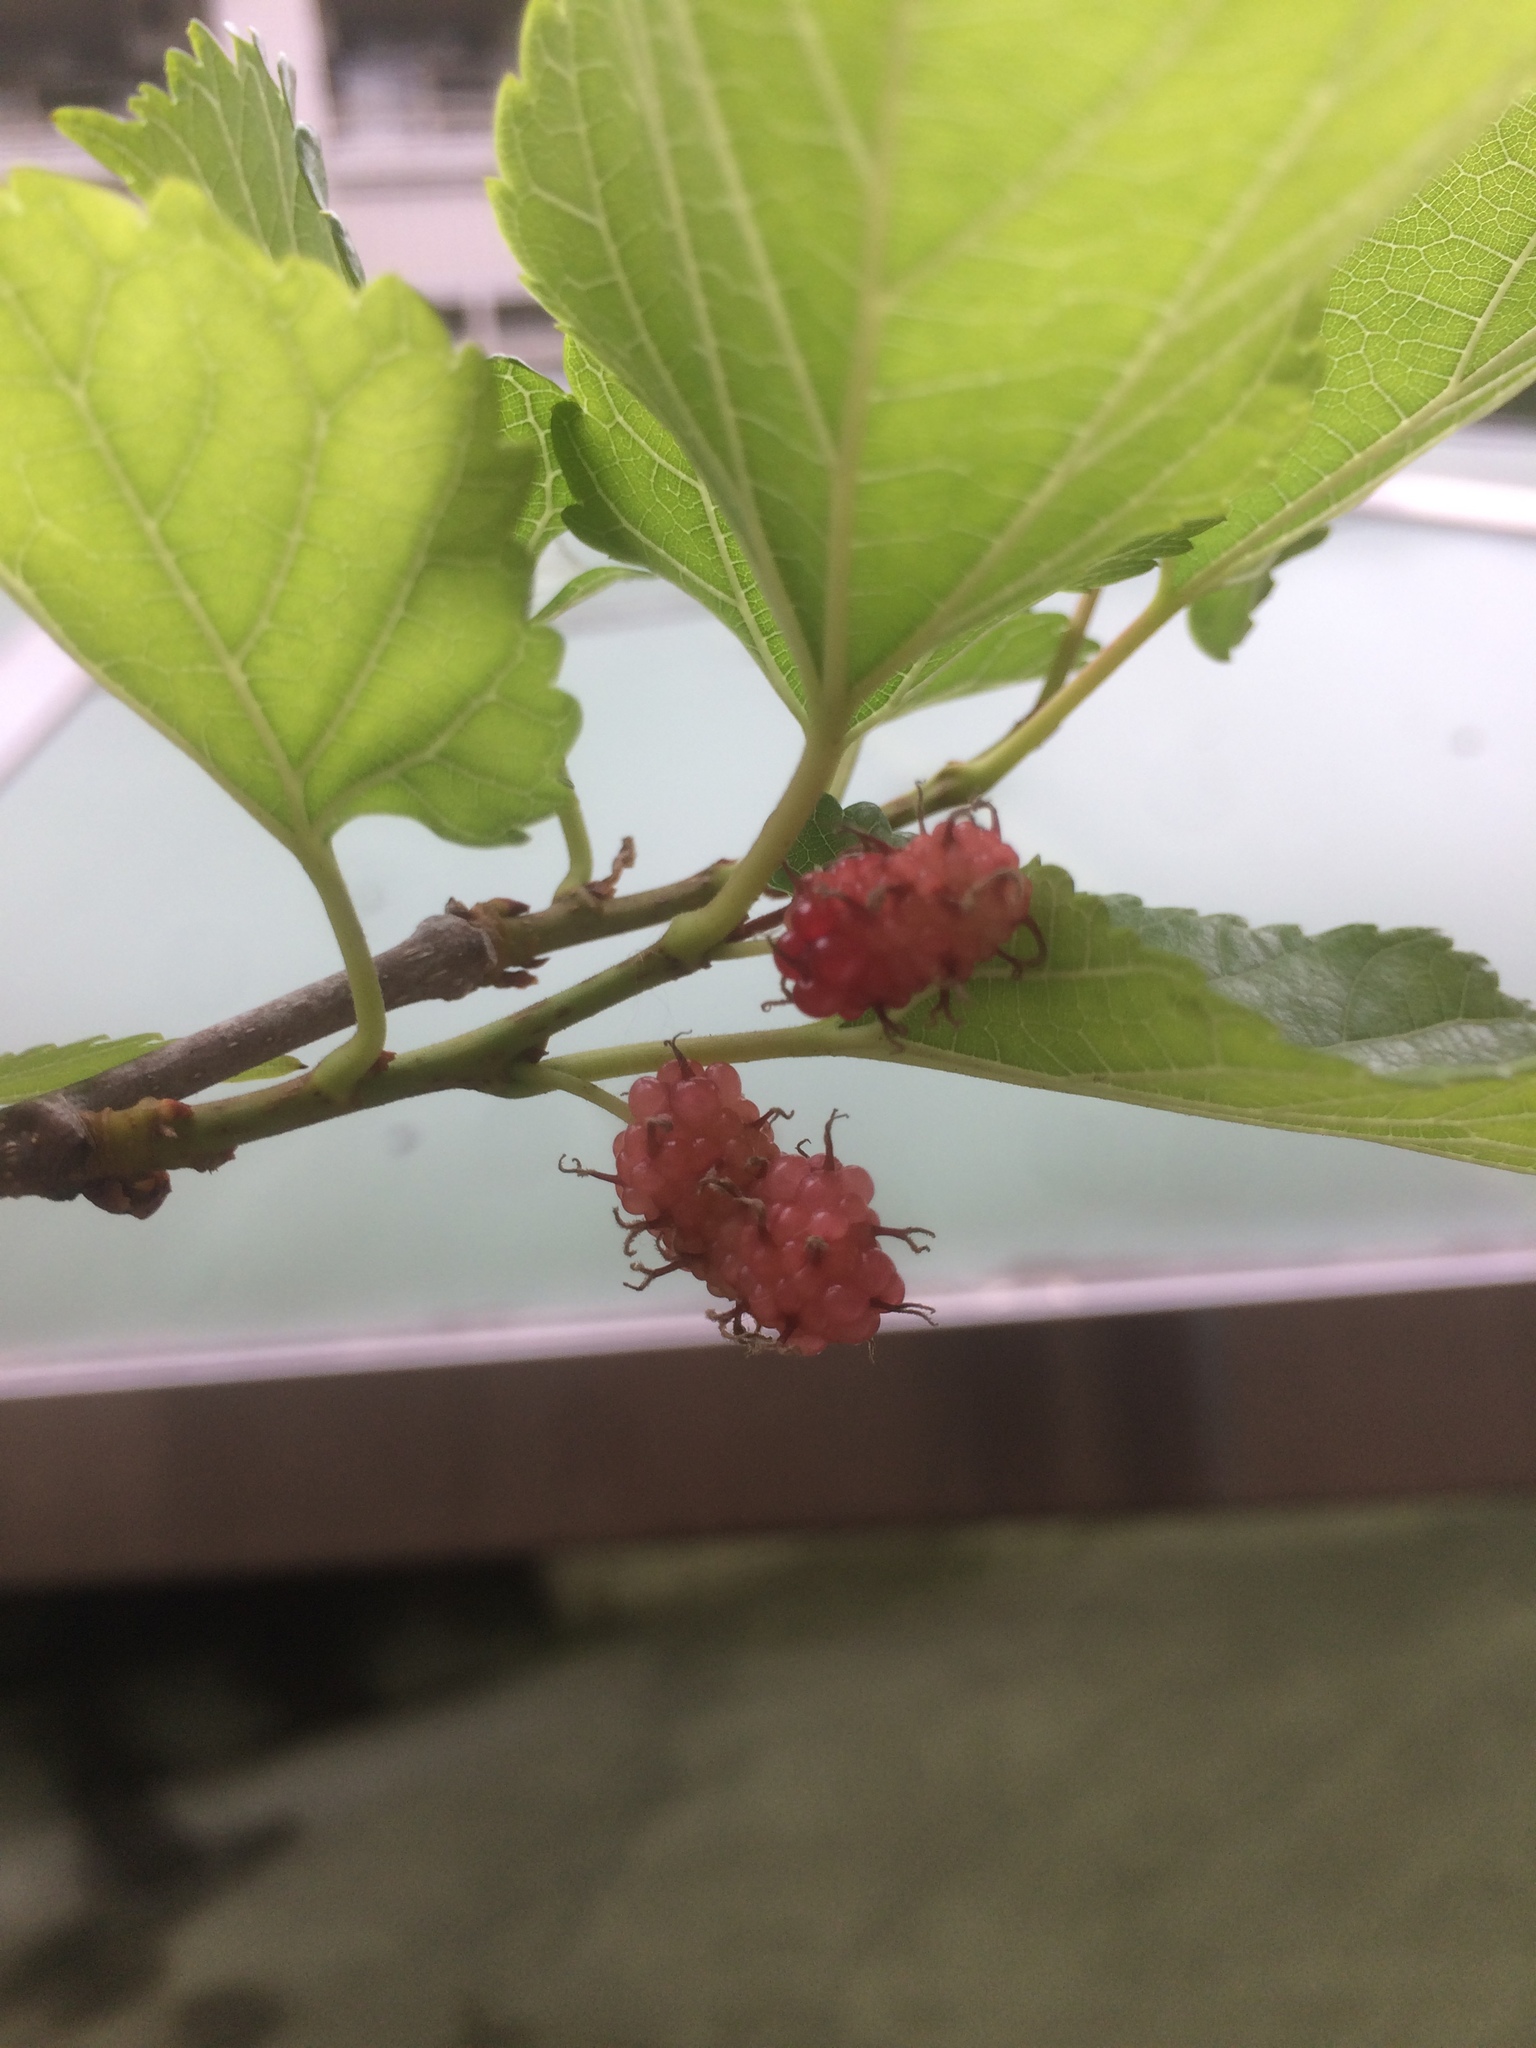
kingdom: Plantae
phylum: Tracheophyta
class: Magnoliopsida
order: Rosales
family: Moraceae
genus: Morus
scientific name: Morus indica
